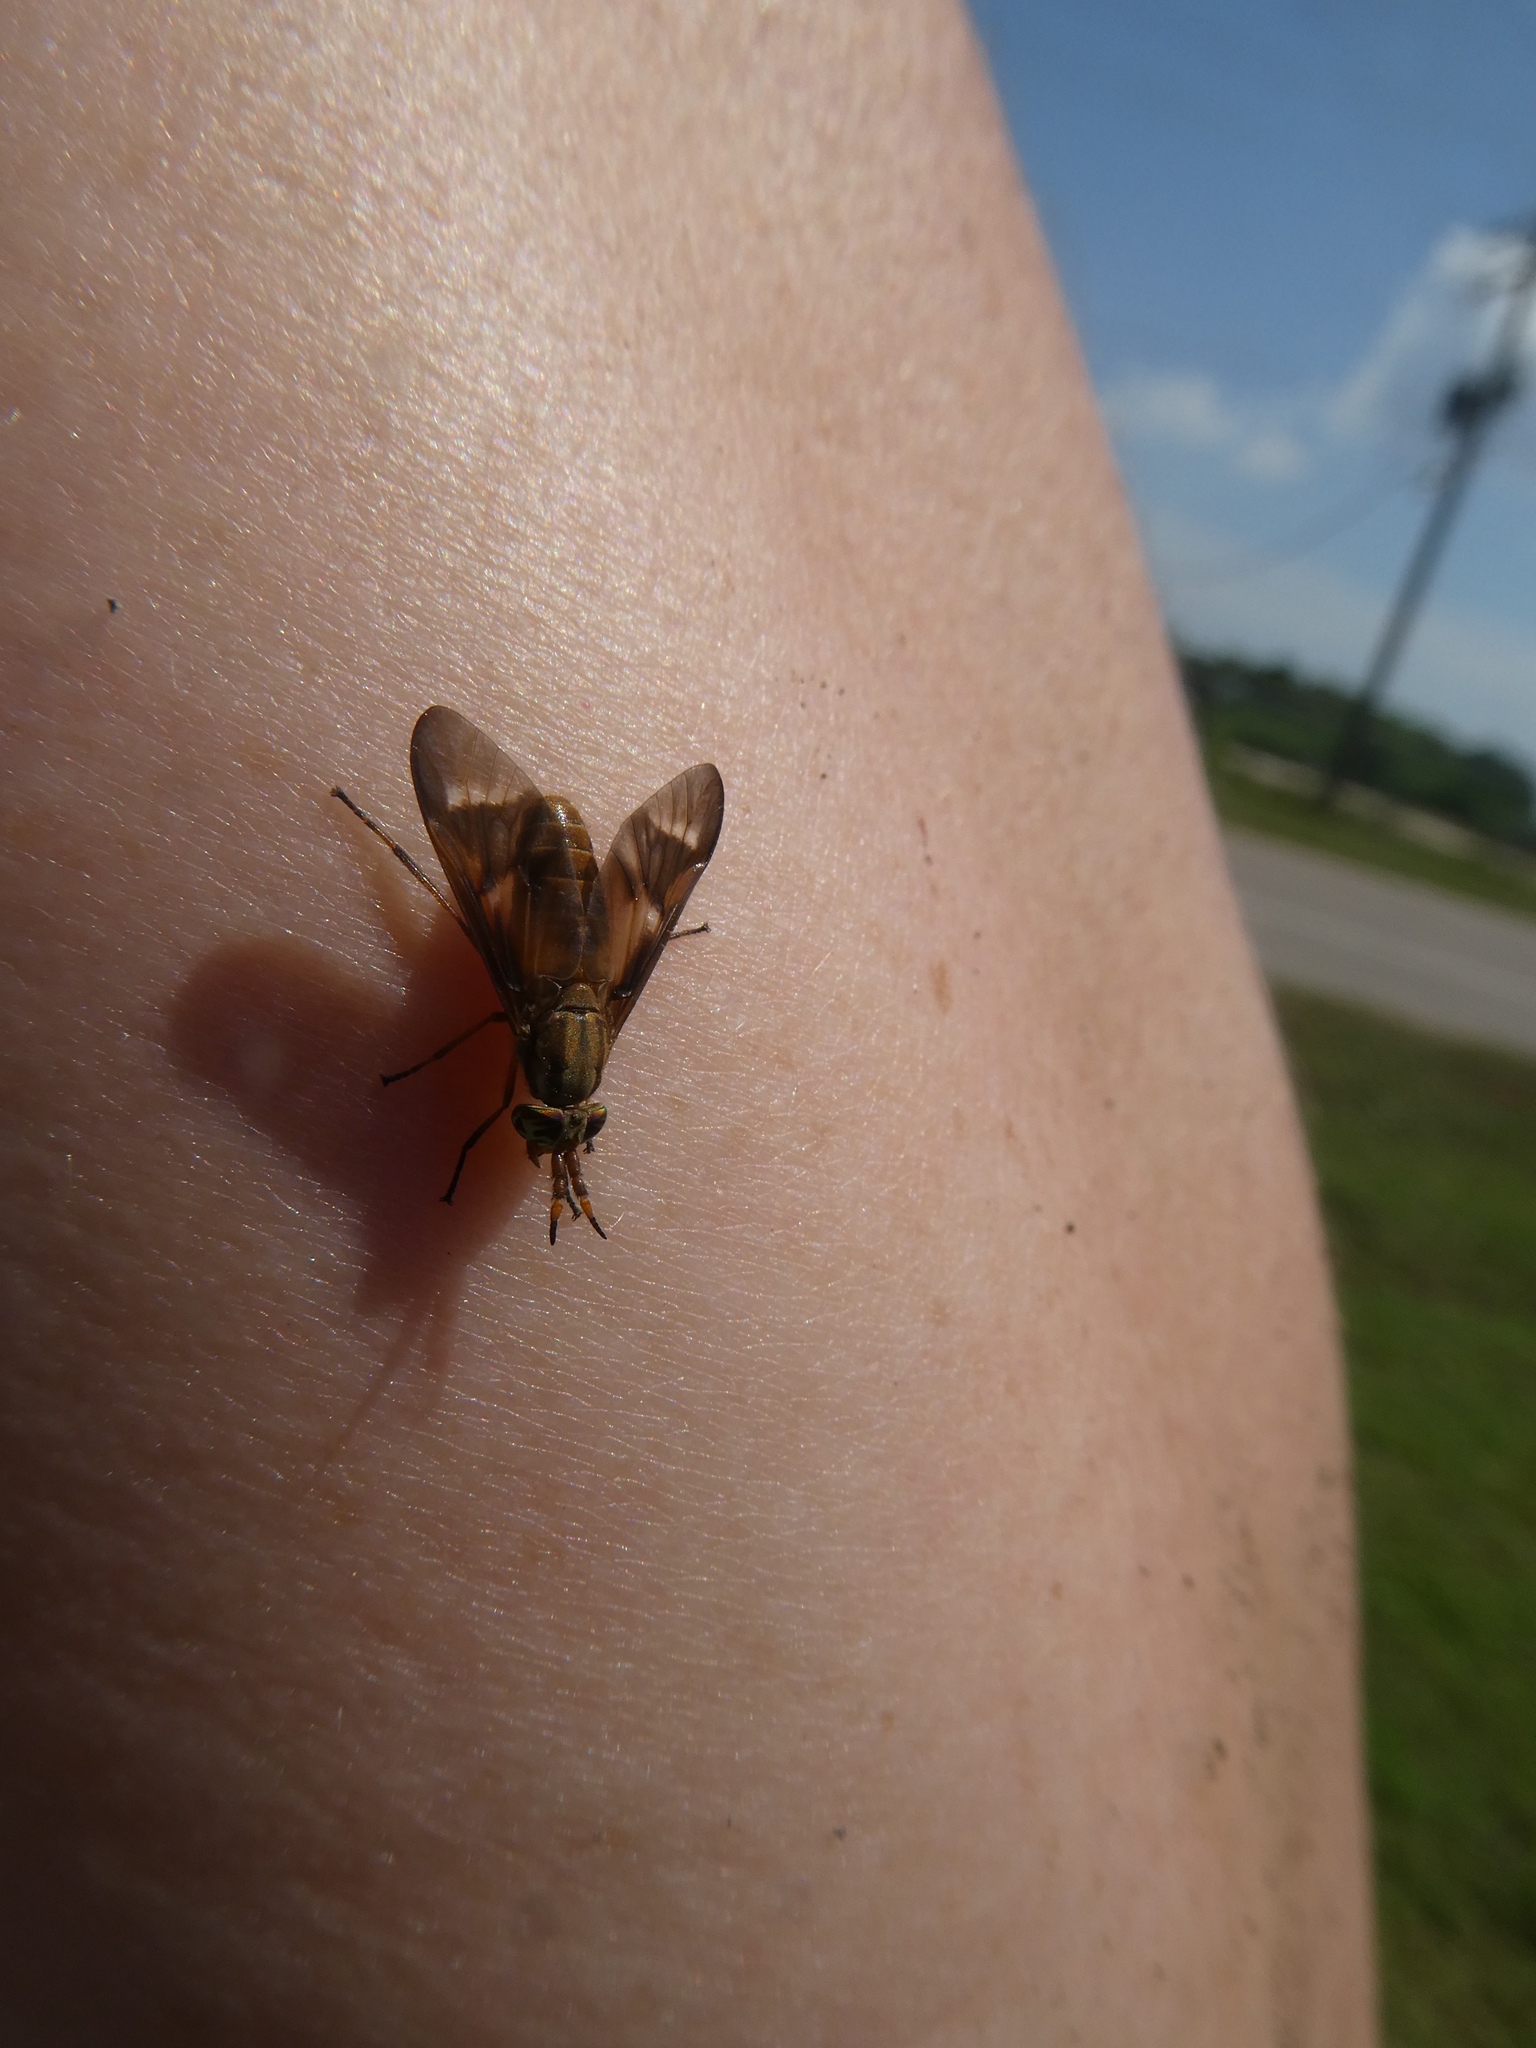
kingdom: Animalia
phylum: Arthropoda
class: Insecta
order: Diptera
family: Tabanidae
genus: Chrysops
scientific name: Chrysops brunneus
